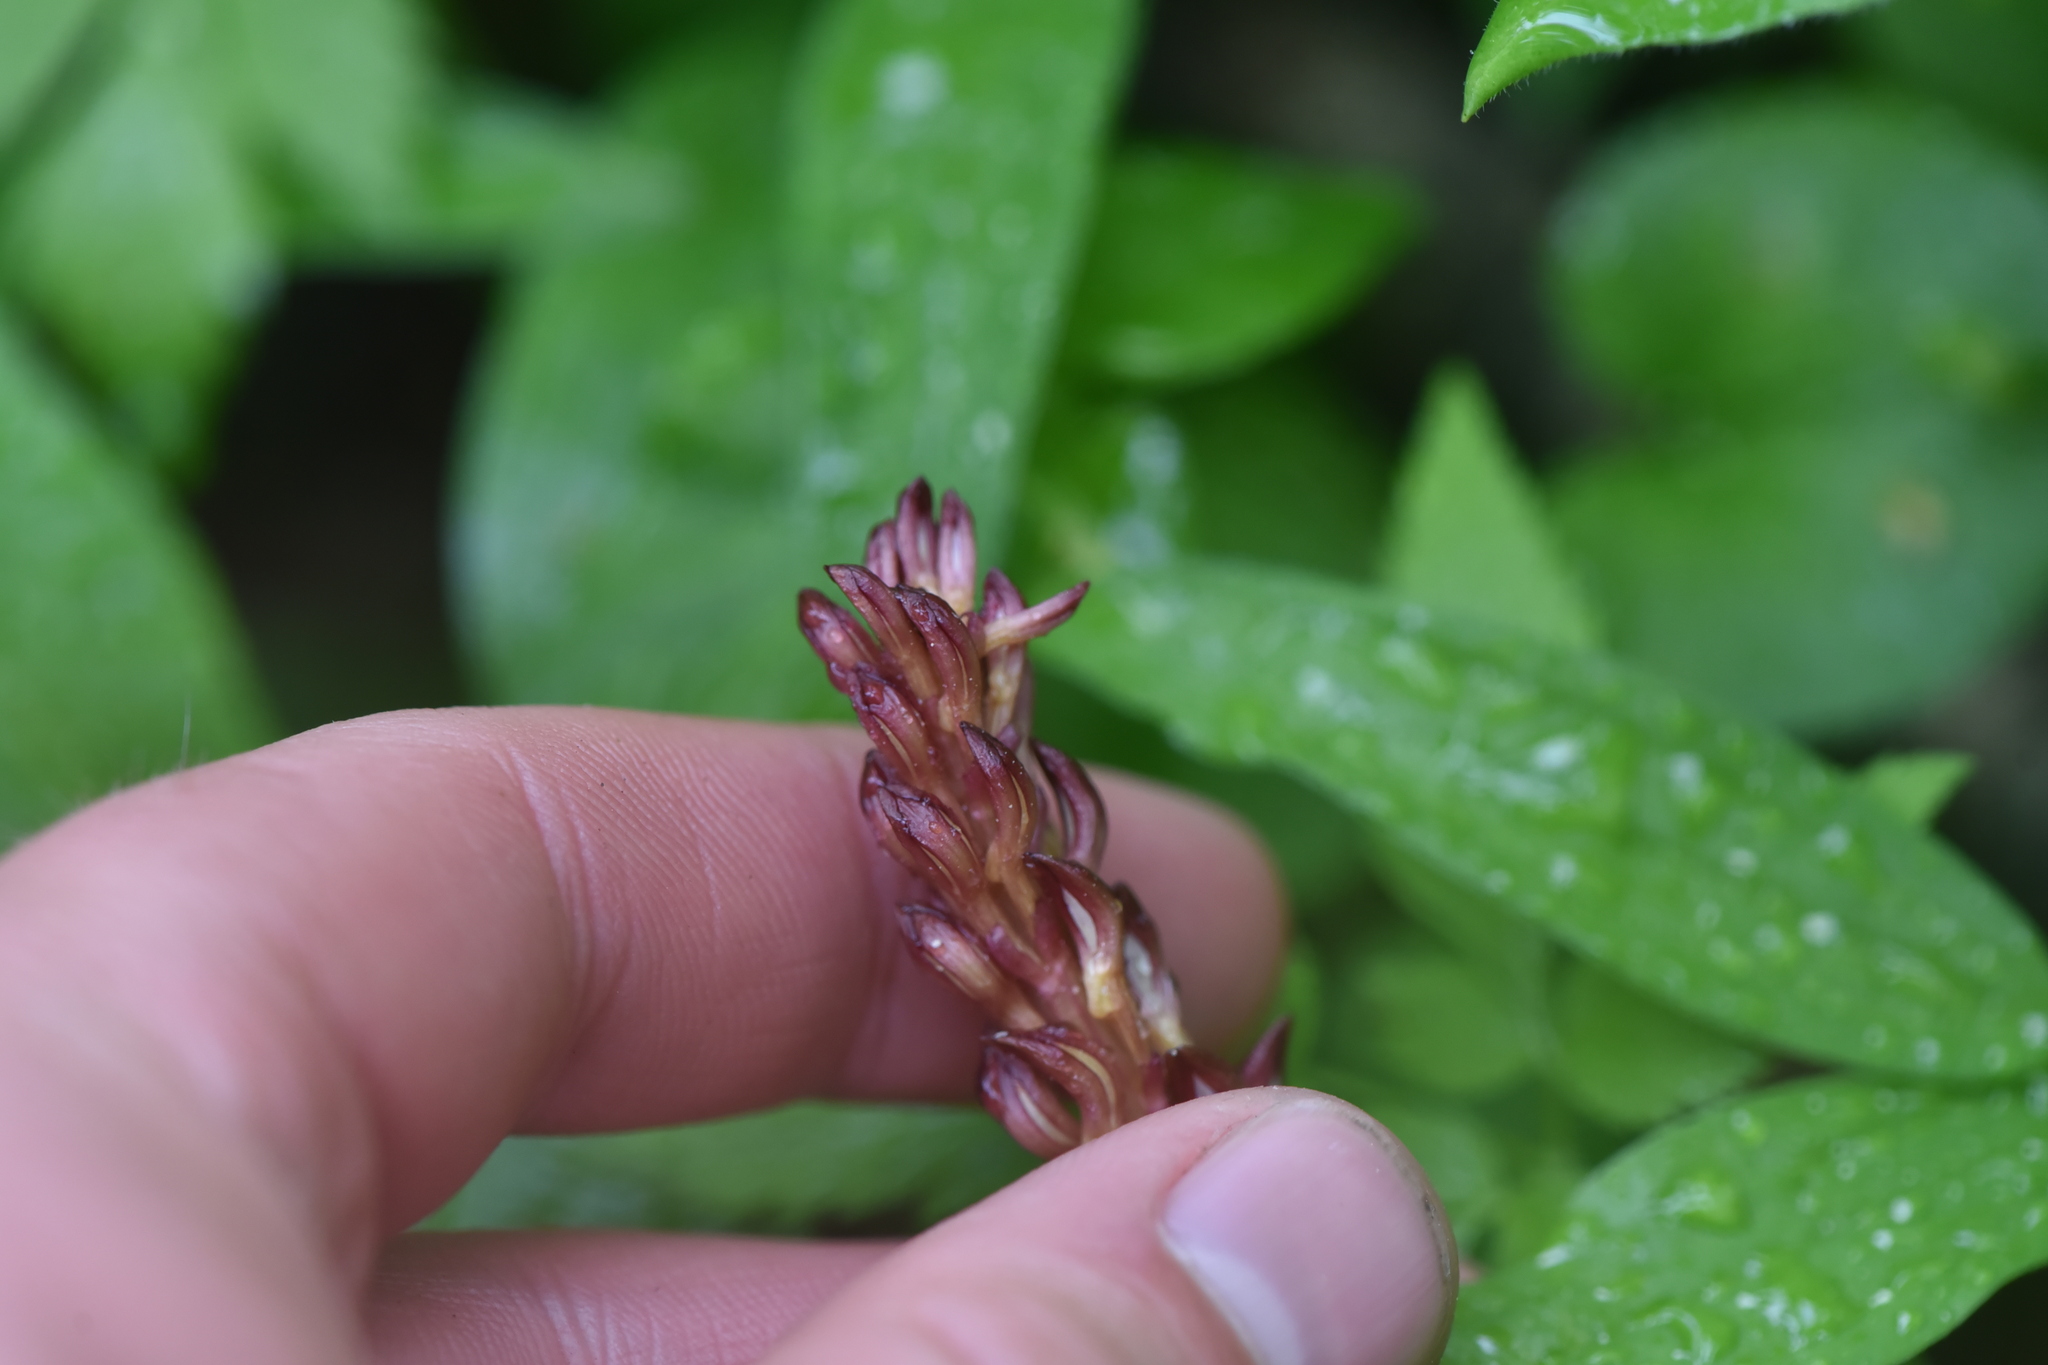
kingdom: Plantae
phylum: Tracheophyta
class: Liliopsida
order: Asparagales
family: Orchidaceae
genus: Corallorhiza
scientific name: Corallorhiza maculata
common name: Spotted coralroot
